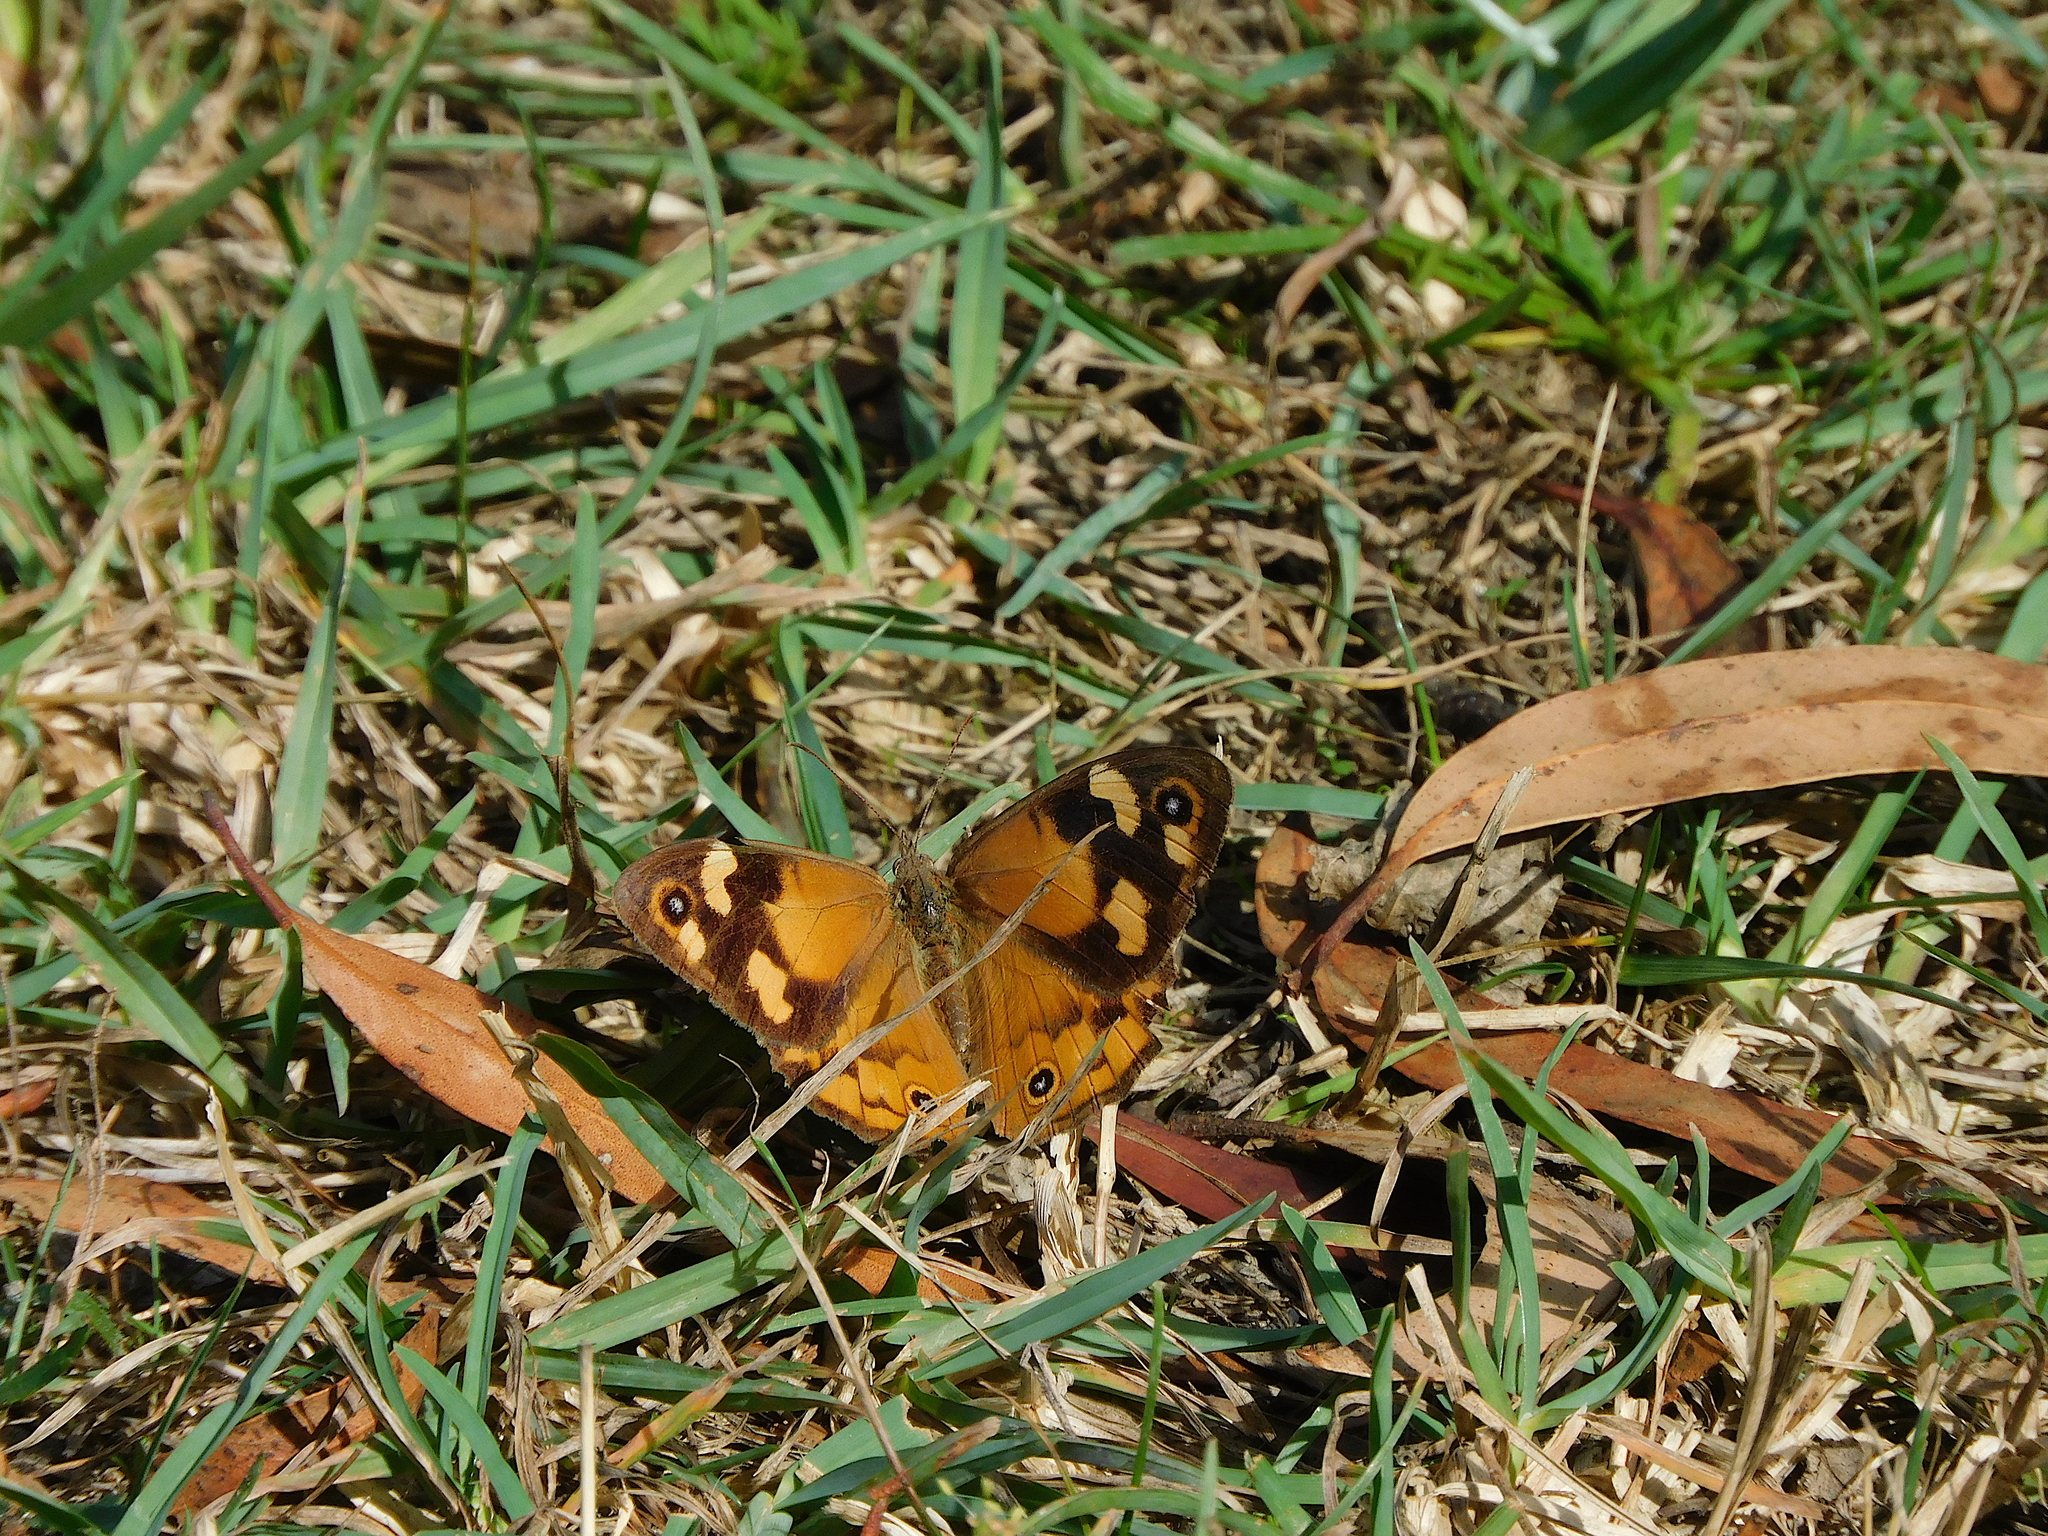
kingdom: Animalia
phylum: Arthropoda
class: Insecta
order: Lepidoptera
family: Nymphalidae
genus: Heteronympha
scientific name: Heteronympha merope
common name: Common brown
